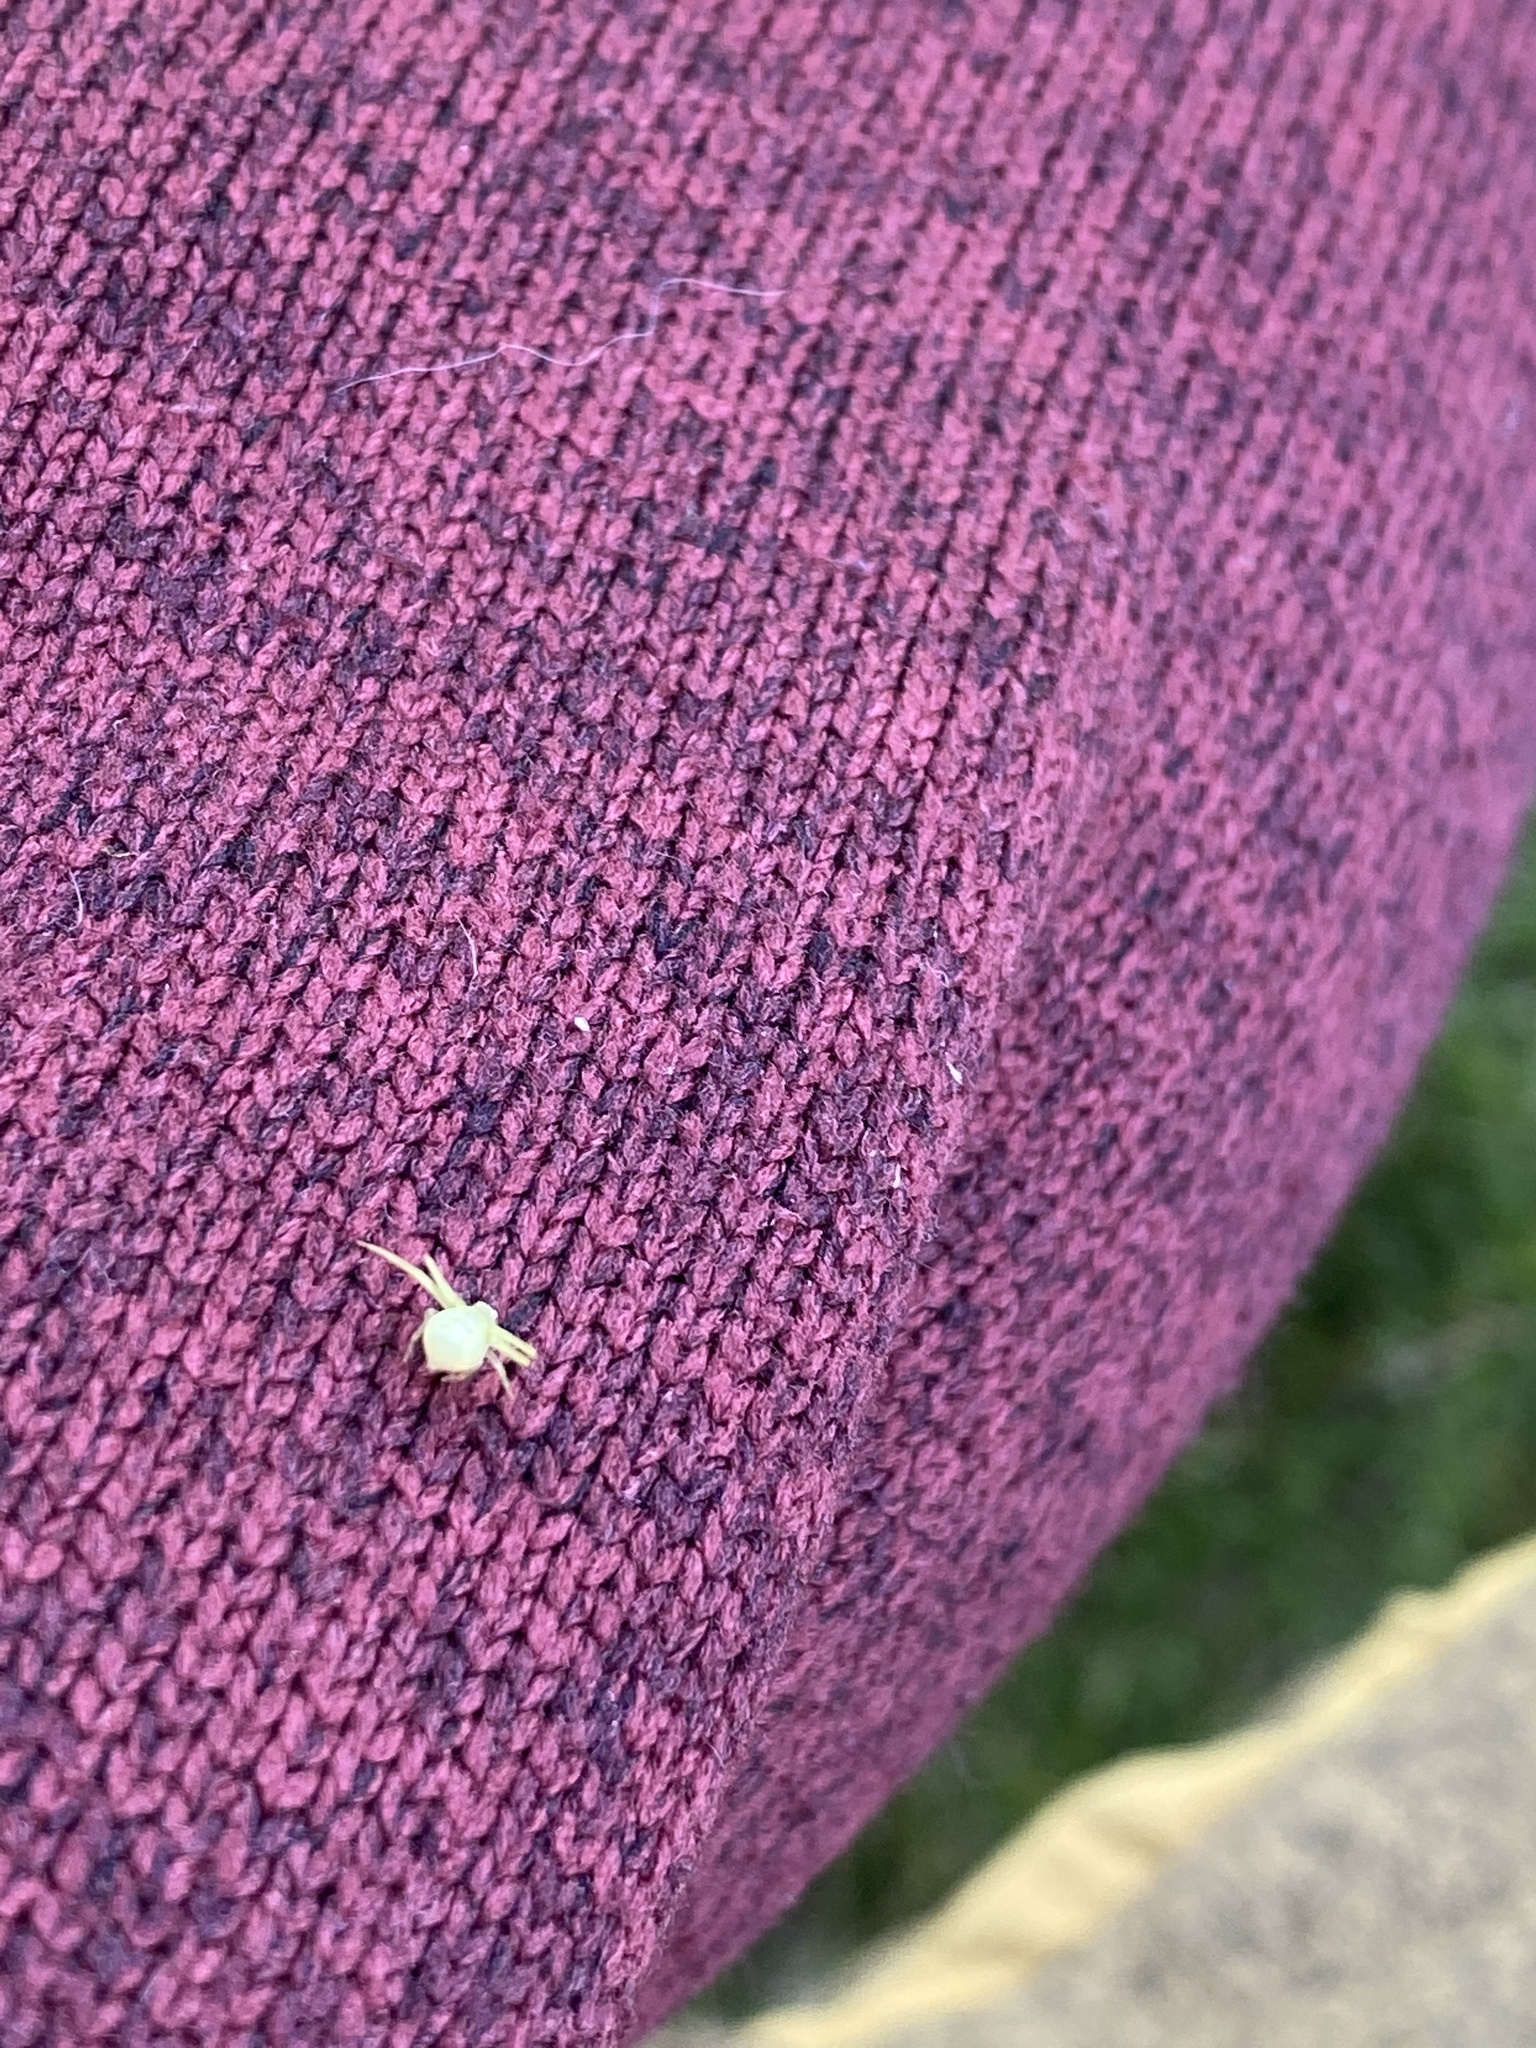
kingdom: Animalia
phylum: Arthropoda
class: Arachnida
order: Araneae
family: Thomisidae
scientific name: Thomisidae
